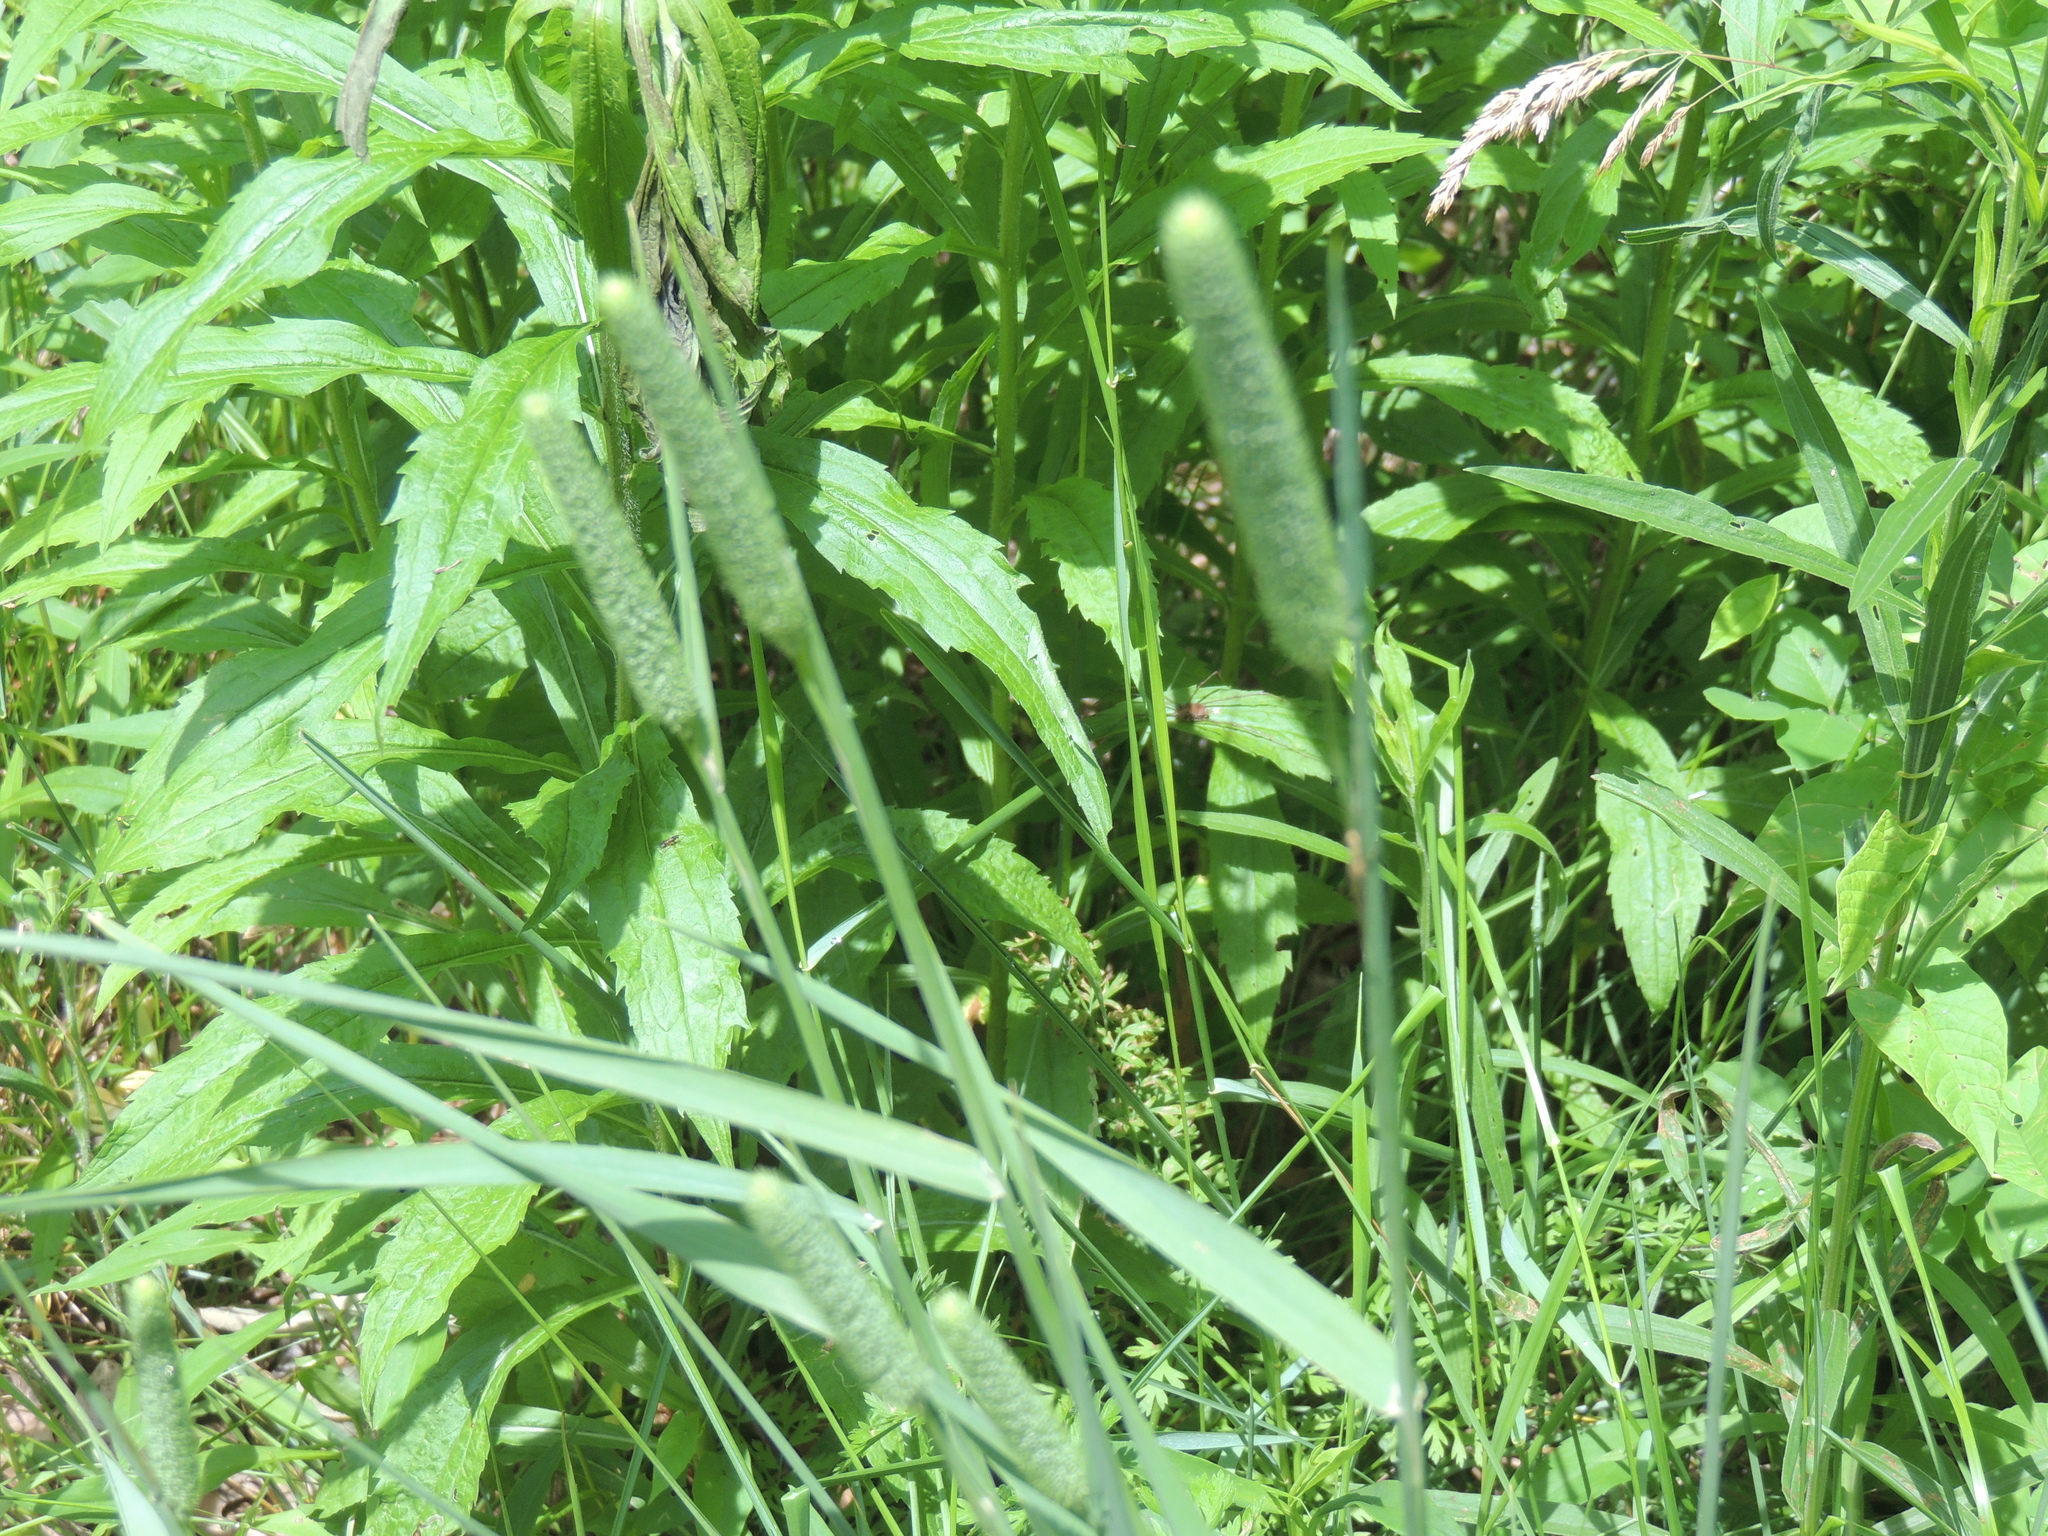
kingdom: Plantae
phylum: Tracheophyta
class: Liliopsida
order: Poales
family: Poaceae
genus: Phleum
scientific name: Phleum pratense
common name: Timothy grass
